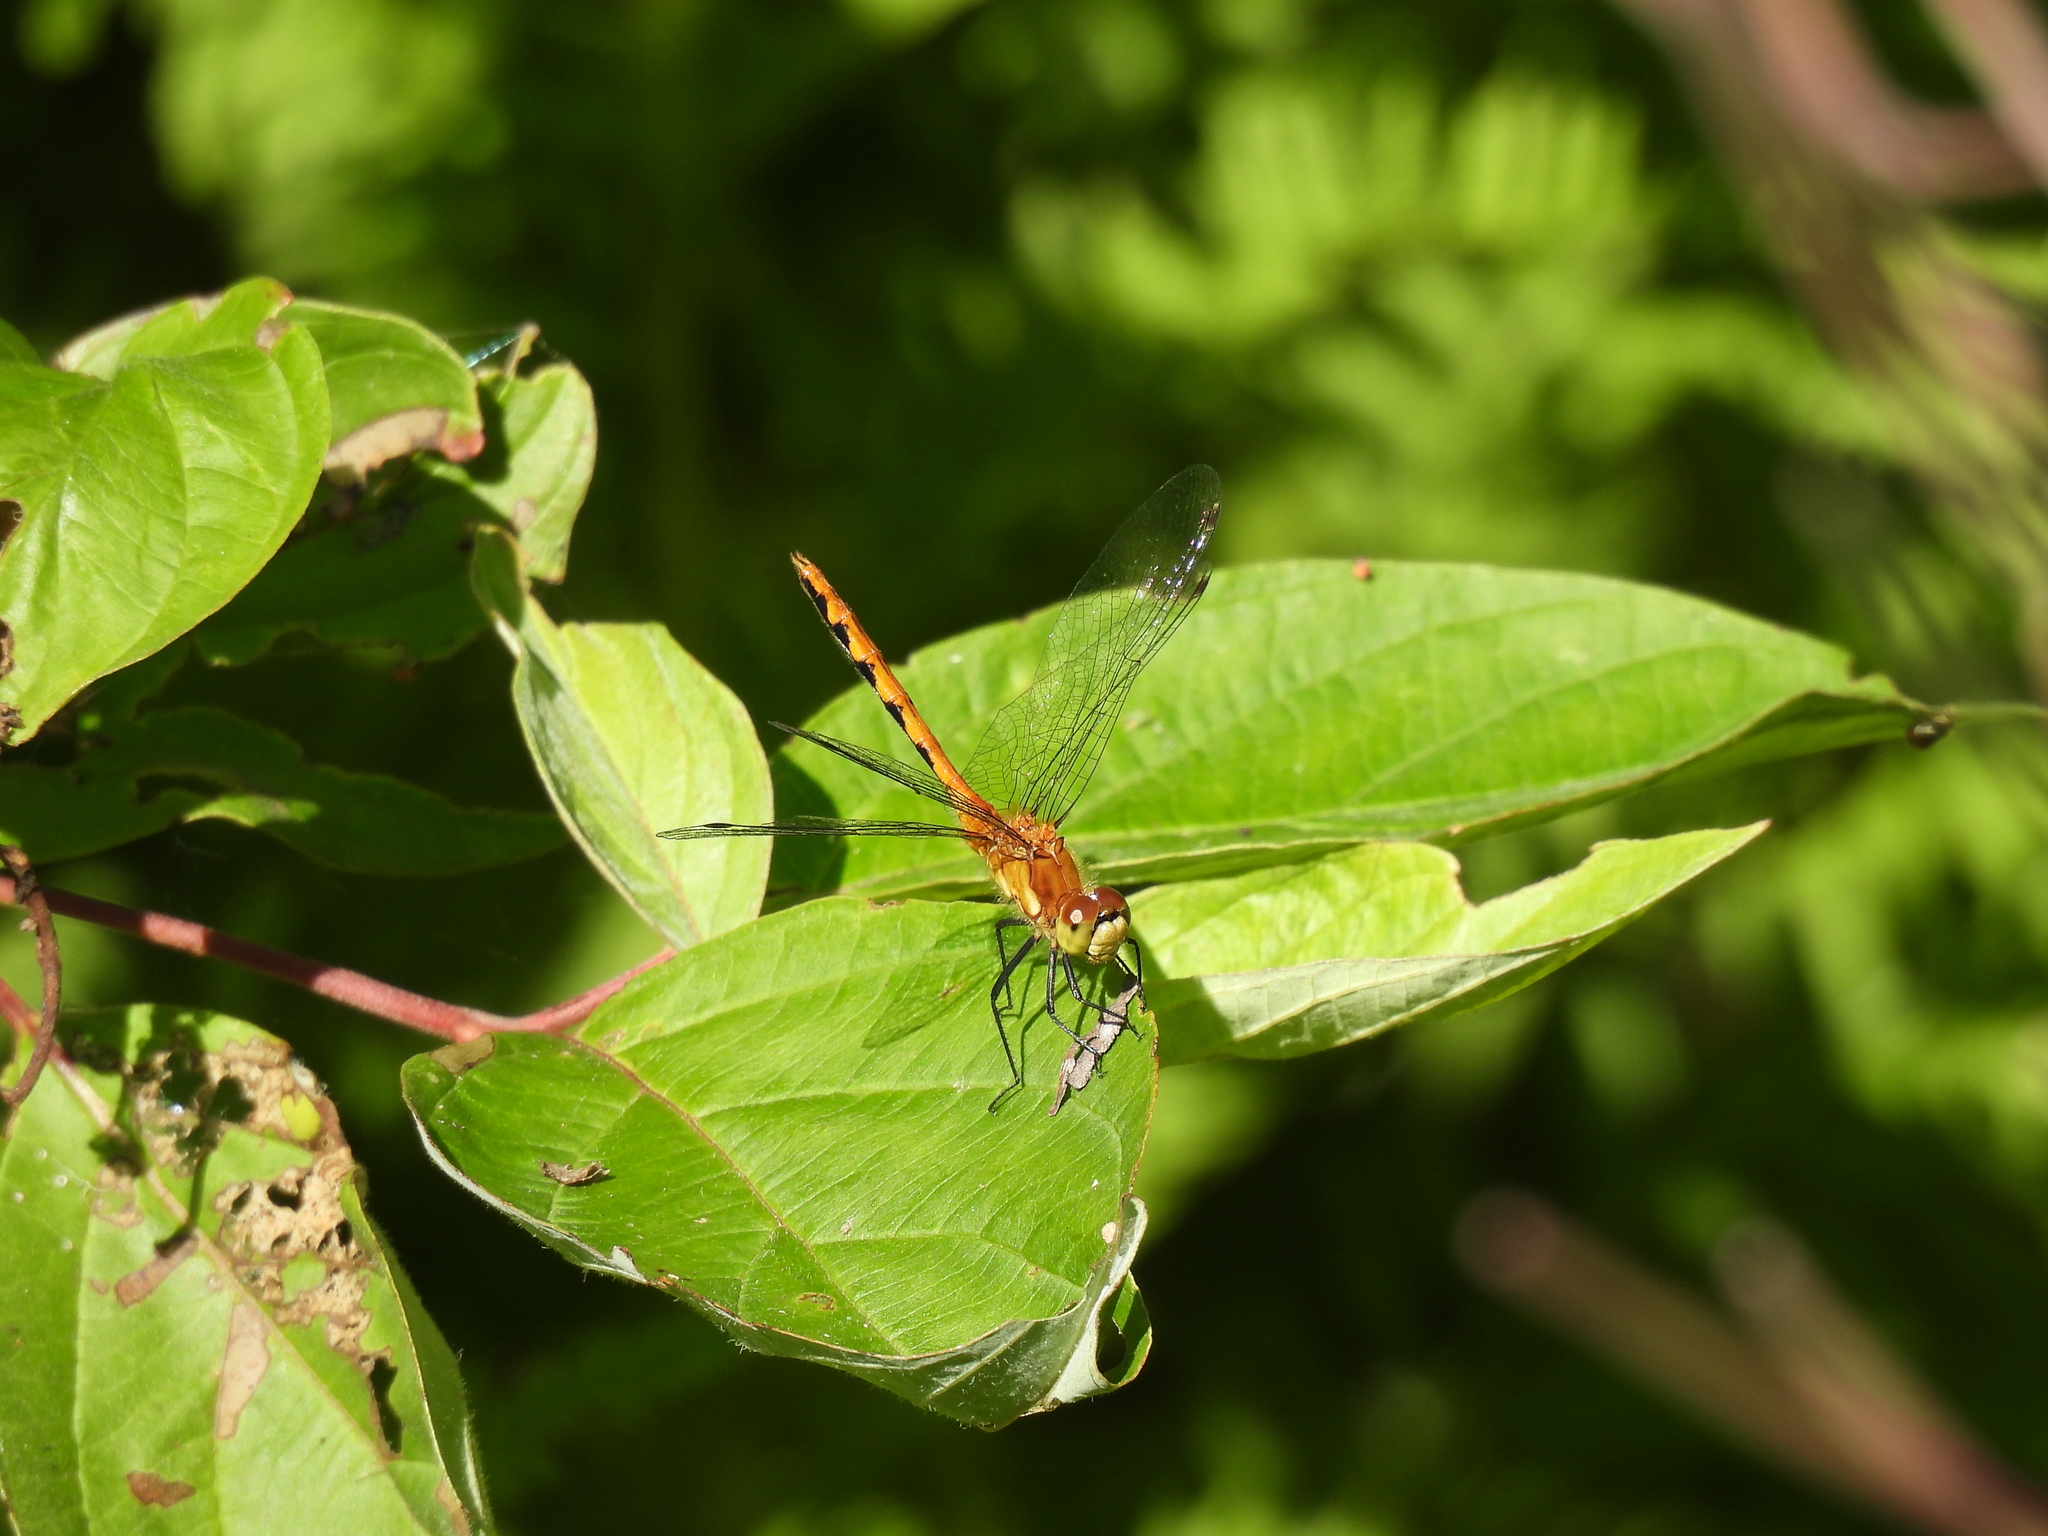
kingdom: Animalia
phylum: Arthropoda
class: Insecta
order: Odonata
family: Libellulidae
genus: Sympetrum
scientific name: Sympetrum obtrusum
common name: White-faced meadowhawk
